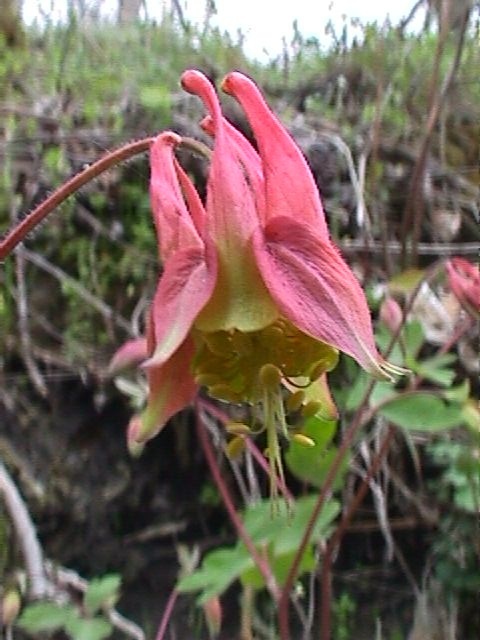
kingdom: Plantae
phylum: Tracheophyta
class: Magnoliopsida
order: Ranunculales
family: Ranunculaceae
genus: Aquilegia
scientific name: Aquilegia canadensis
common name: American columbine
